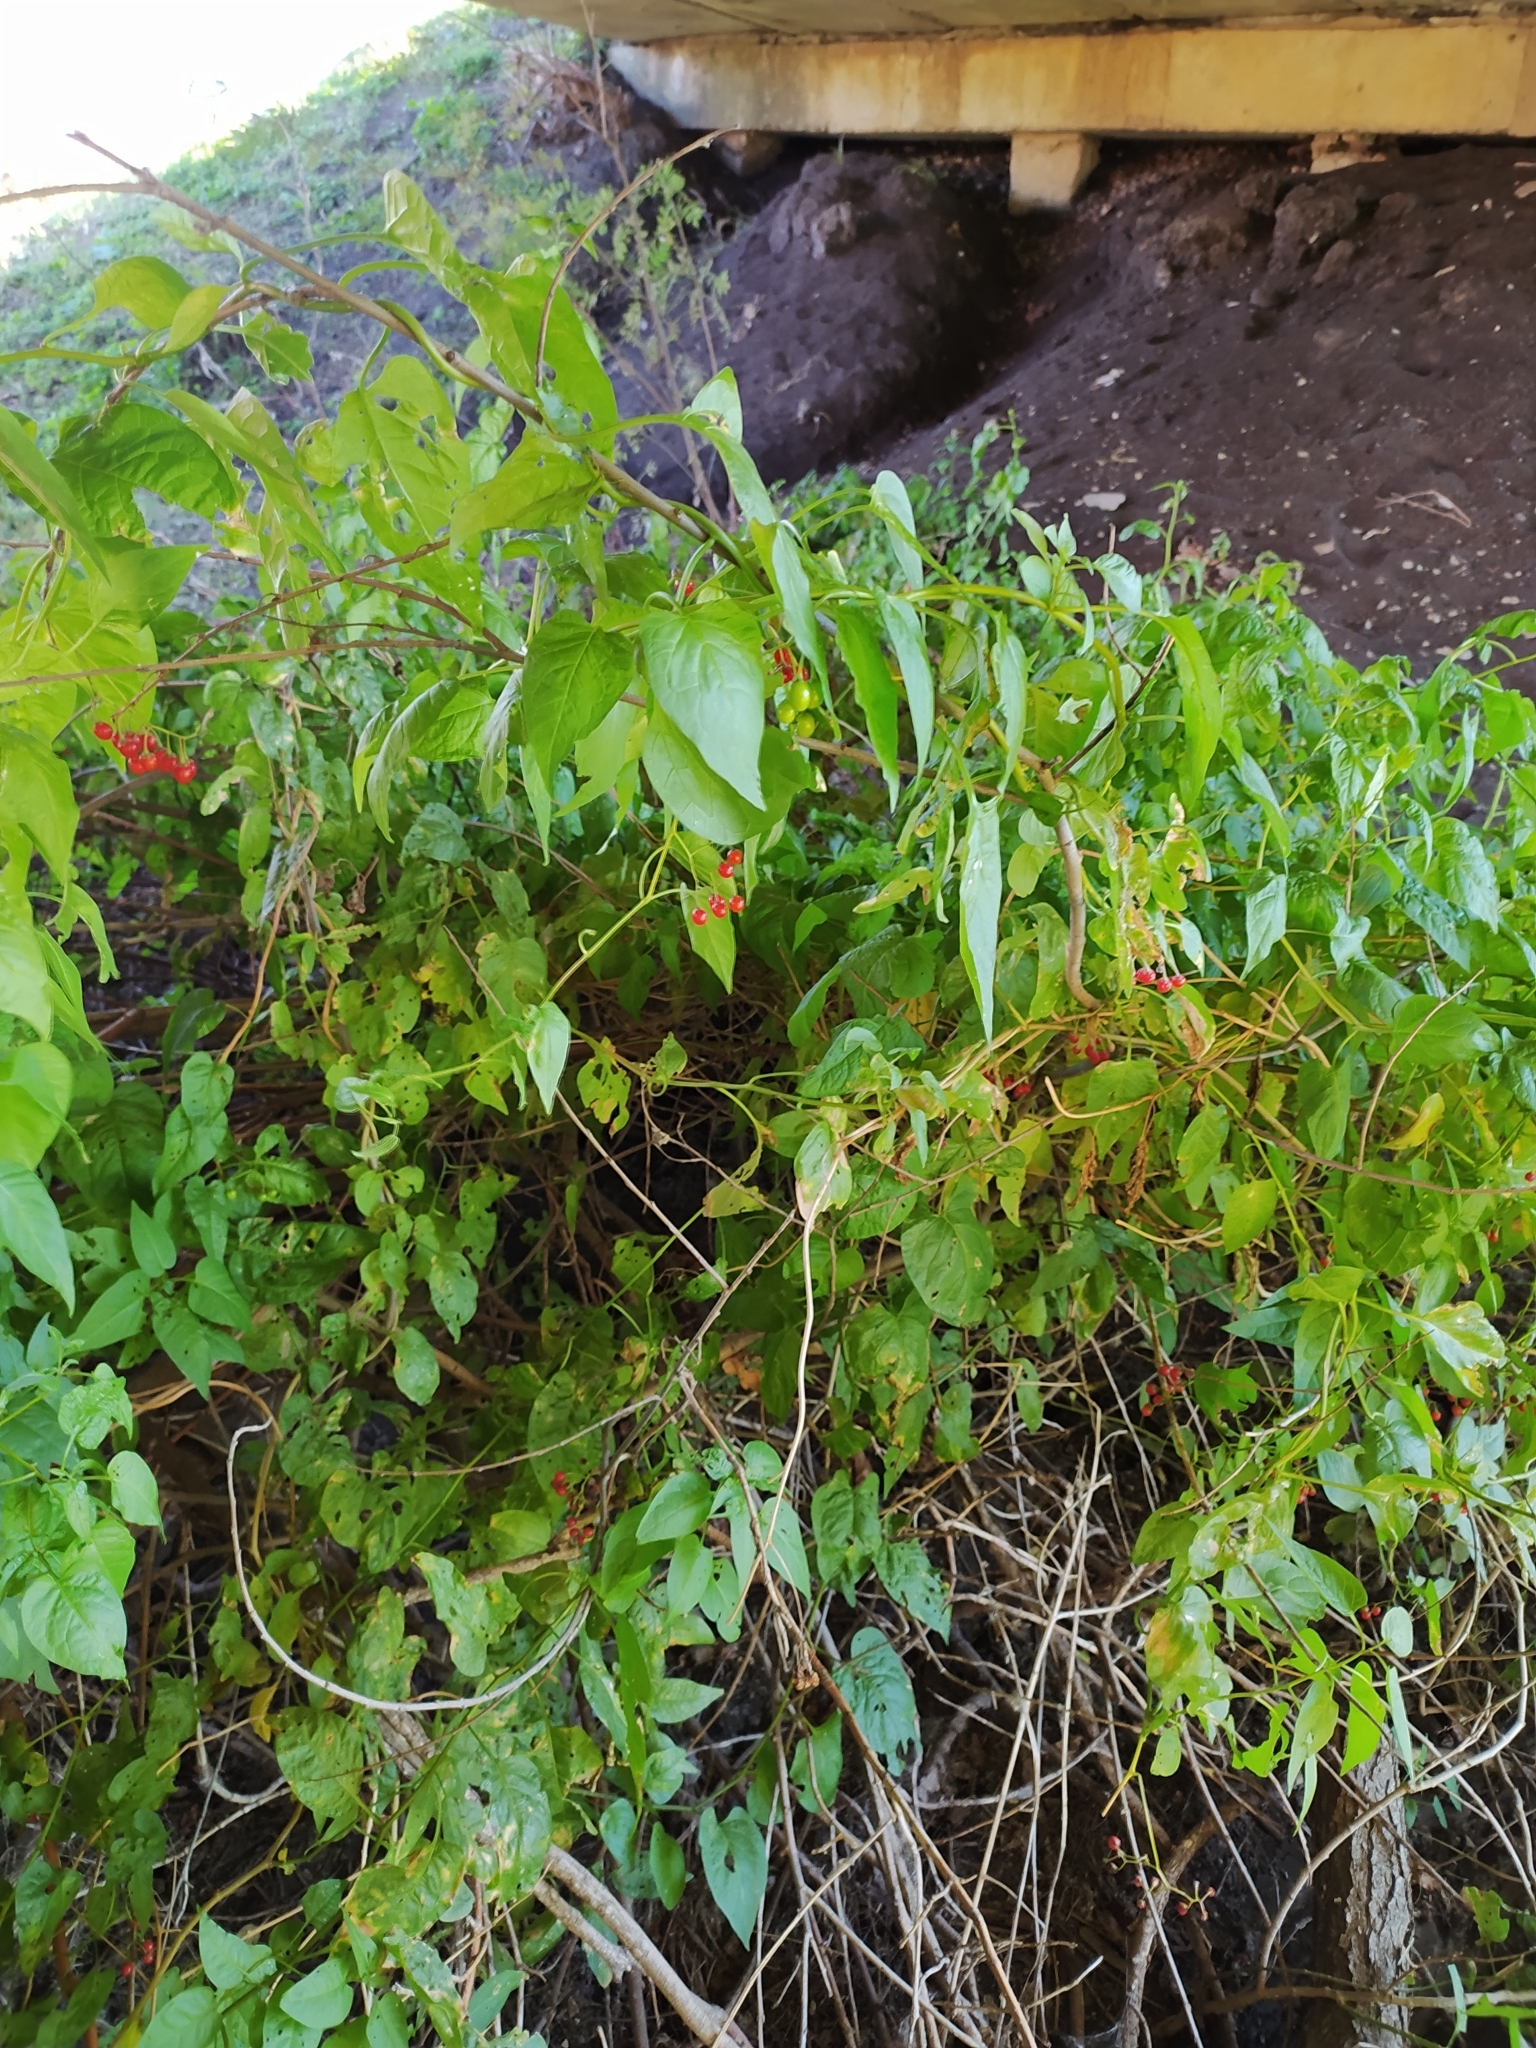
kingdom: Plantae
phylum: Tracheophyta
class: Magnoliopsida
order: Solanales
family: Solanaceae
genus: Solanum
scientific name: Solanum dulcamara
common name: Climbing nightshade
